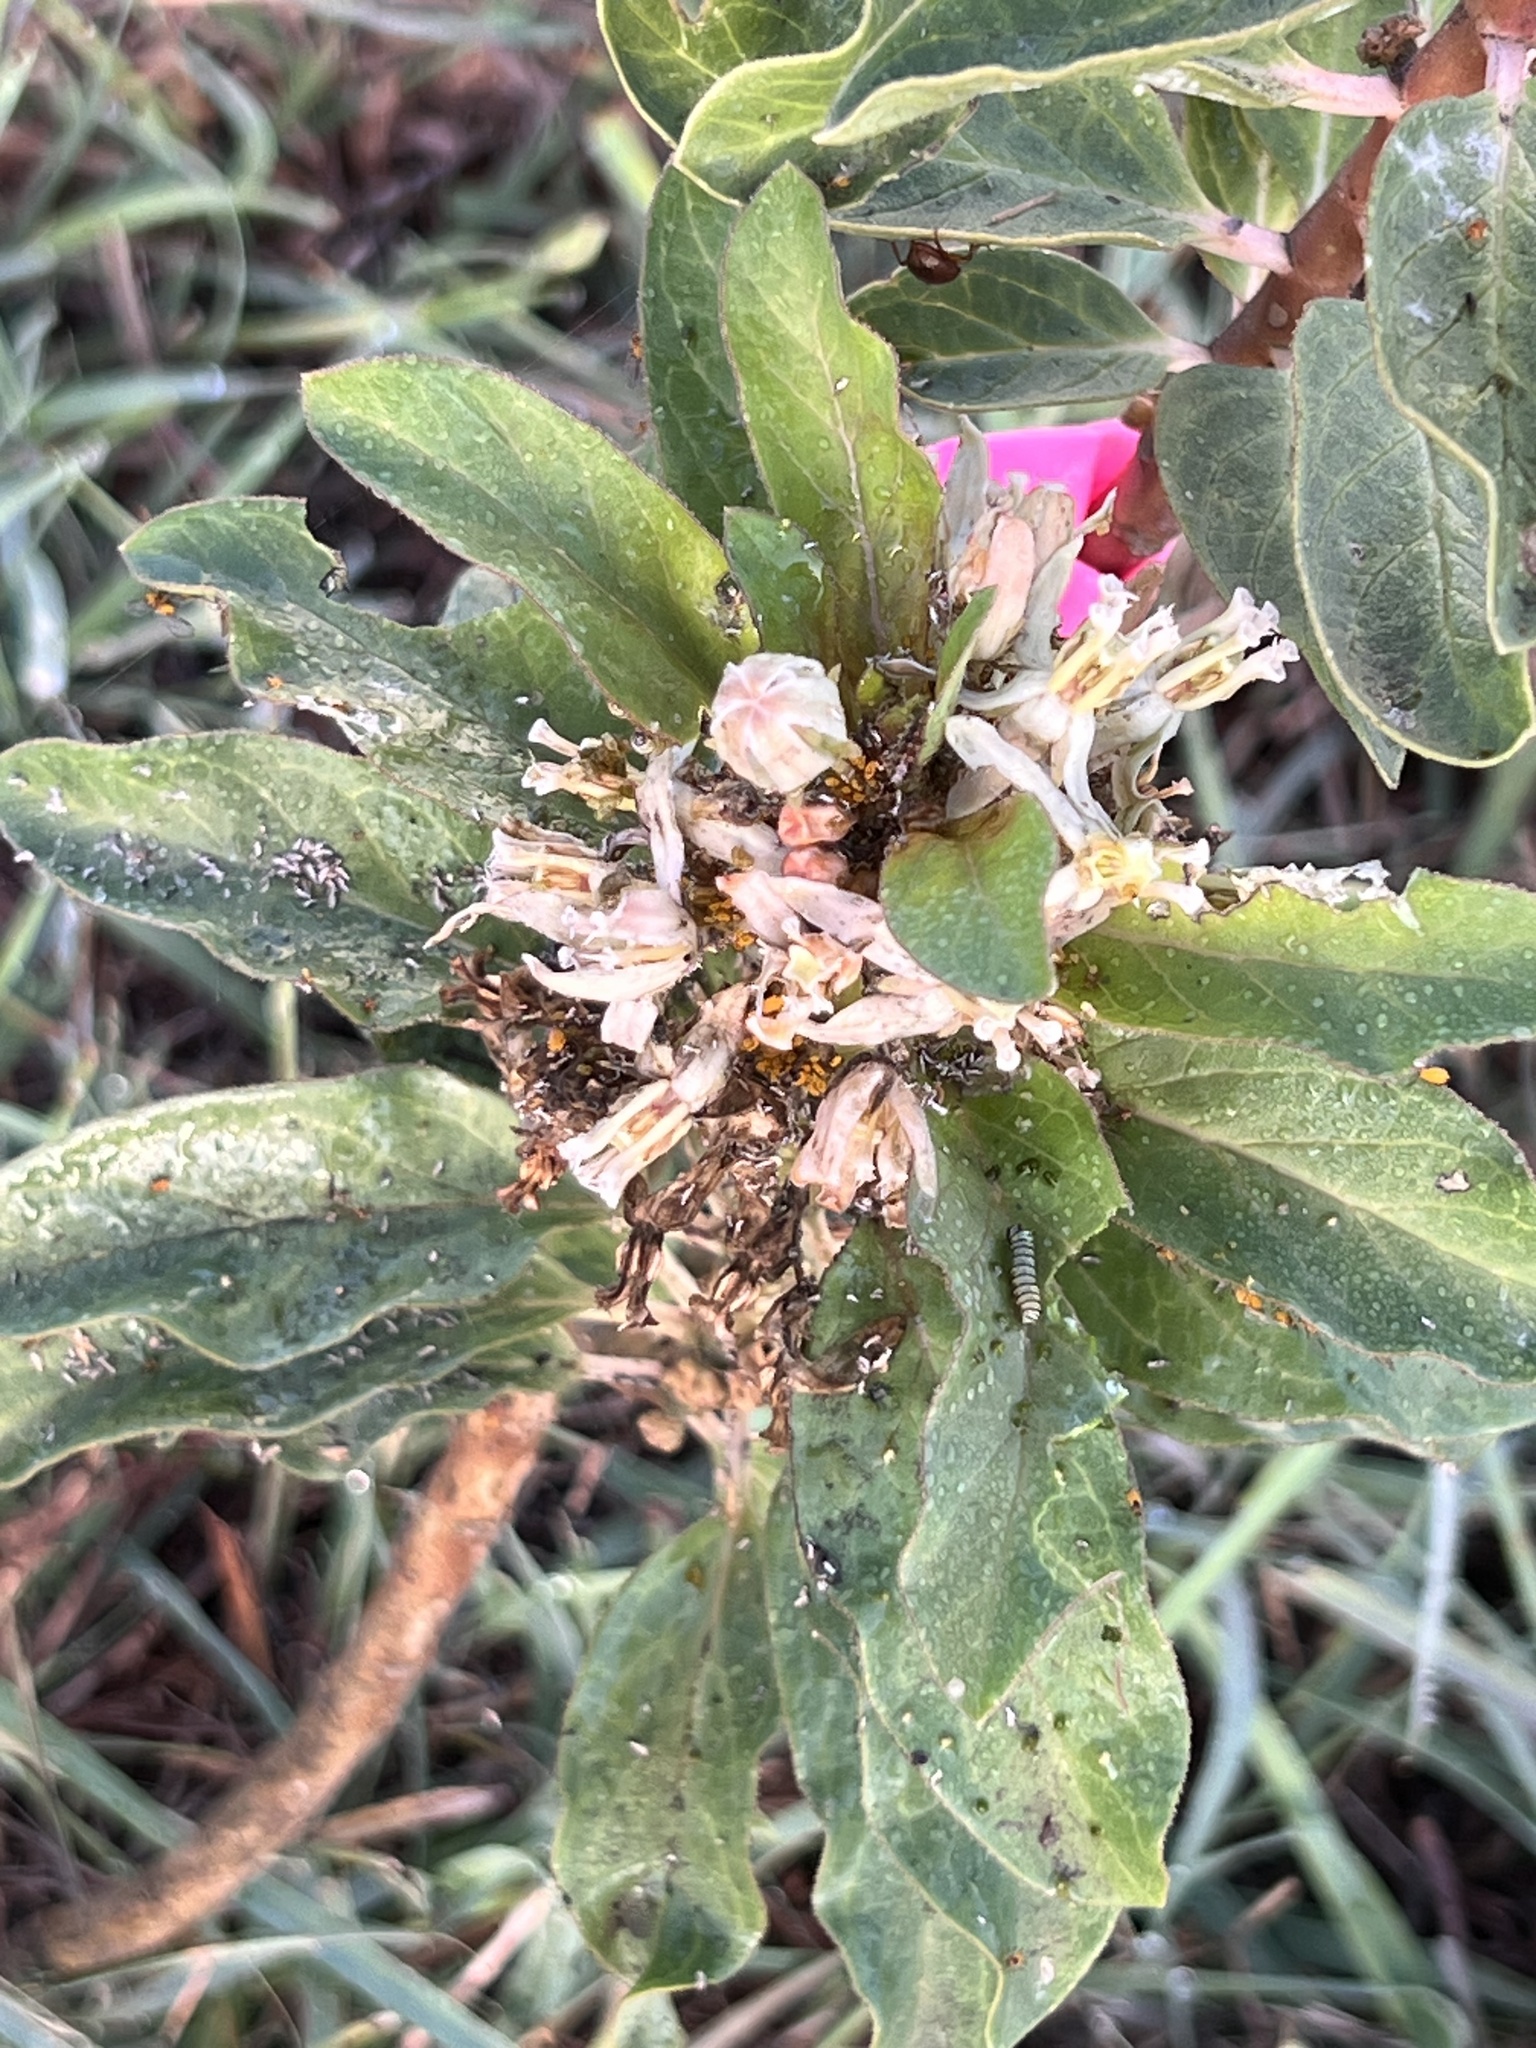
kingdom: Plantae
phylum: Tracheophyta
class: Magnoliopsida
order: Gentianales
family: Apocynaceae
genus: Asclepias
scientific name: Asclepias oenotheroides
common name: Zizotes milkweed
